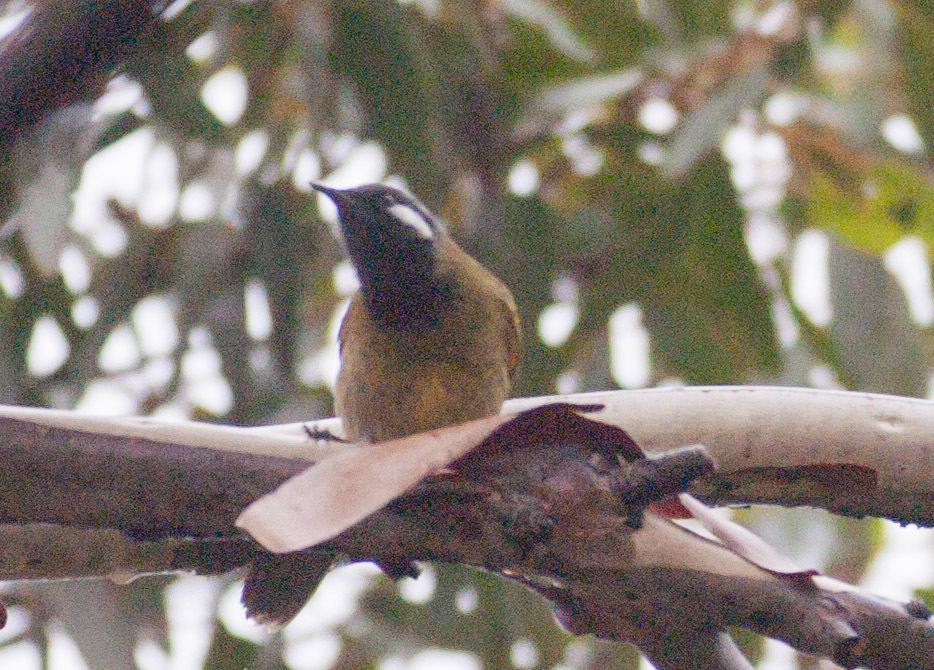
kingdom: Animalia
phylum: Chordata
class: Aves
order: Passeriformes
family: Meliphagidae
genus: Nesoptilotis
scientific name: Nesoptilotis leucotis
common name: White-eared honeyeater
